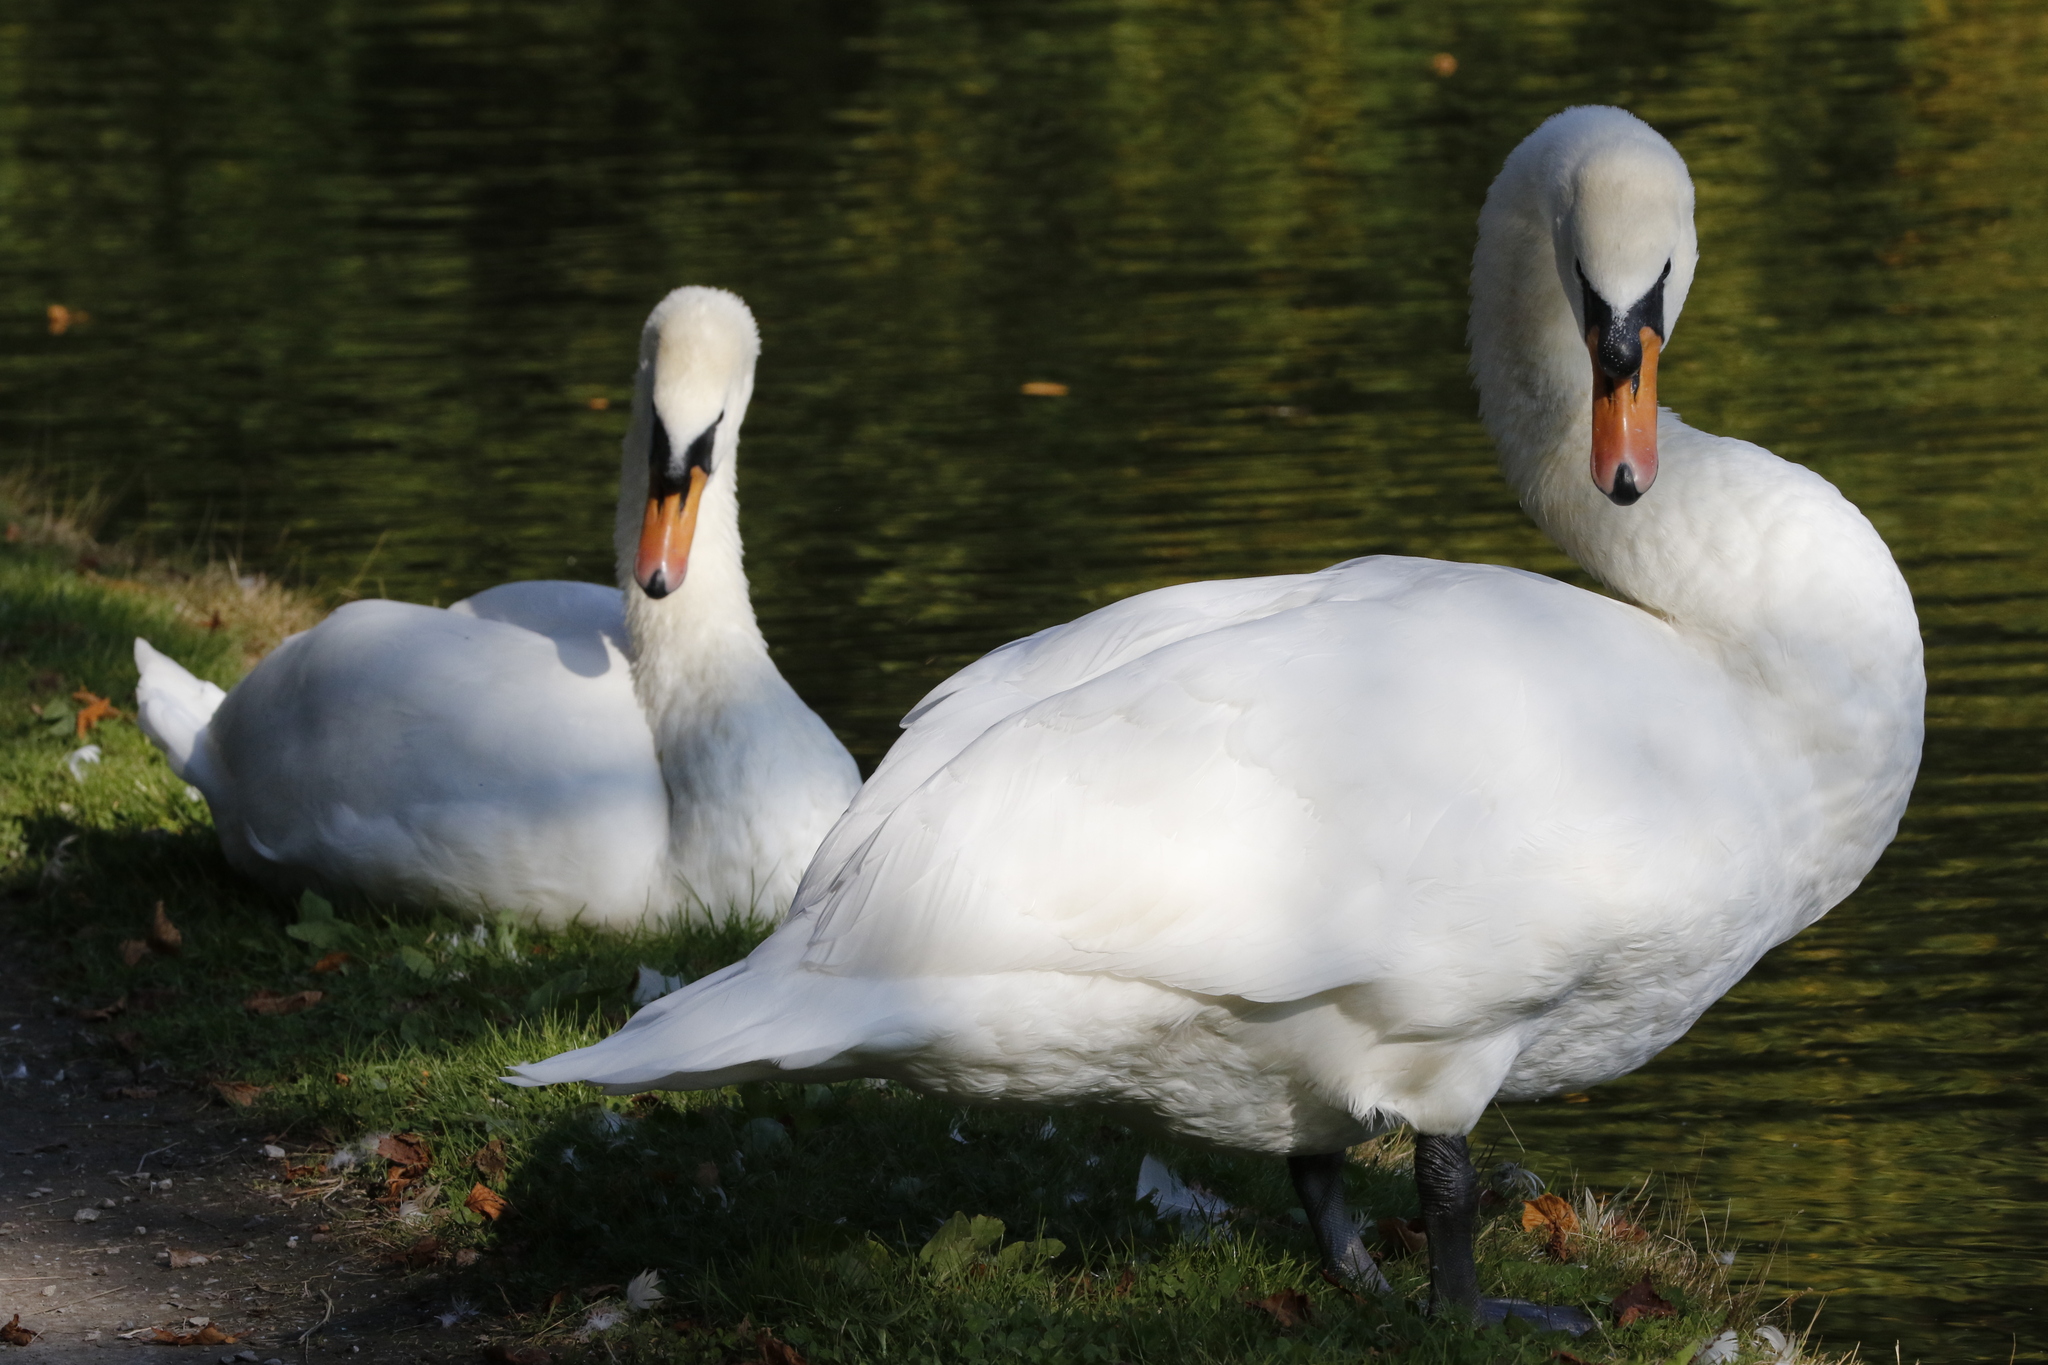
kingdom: Animalia
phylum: Chordata
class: Aves
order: Anseriformes
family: Anatidae
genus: Cygnus
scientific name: Cygnus olor
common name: Mute swan
